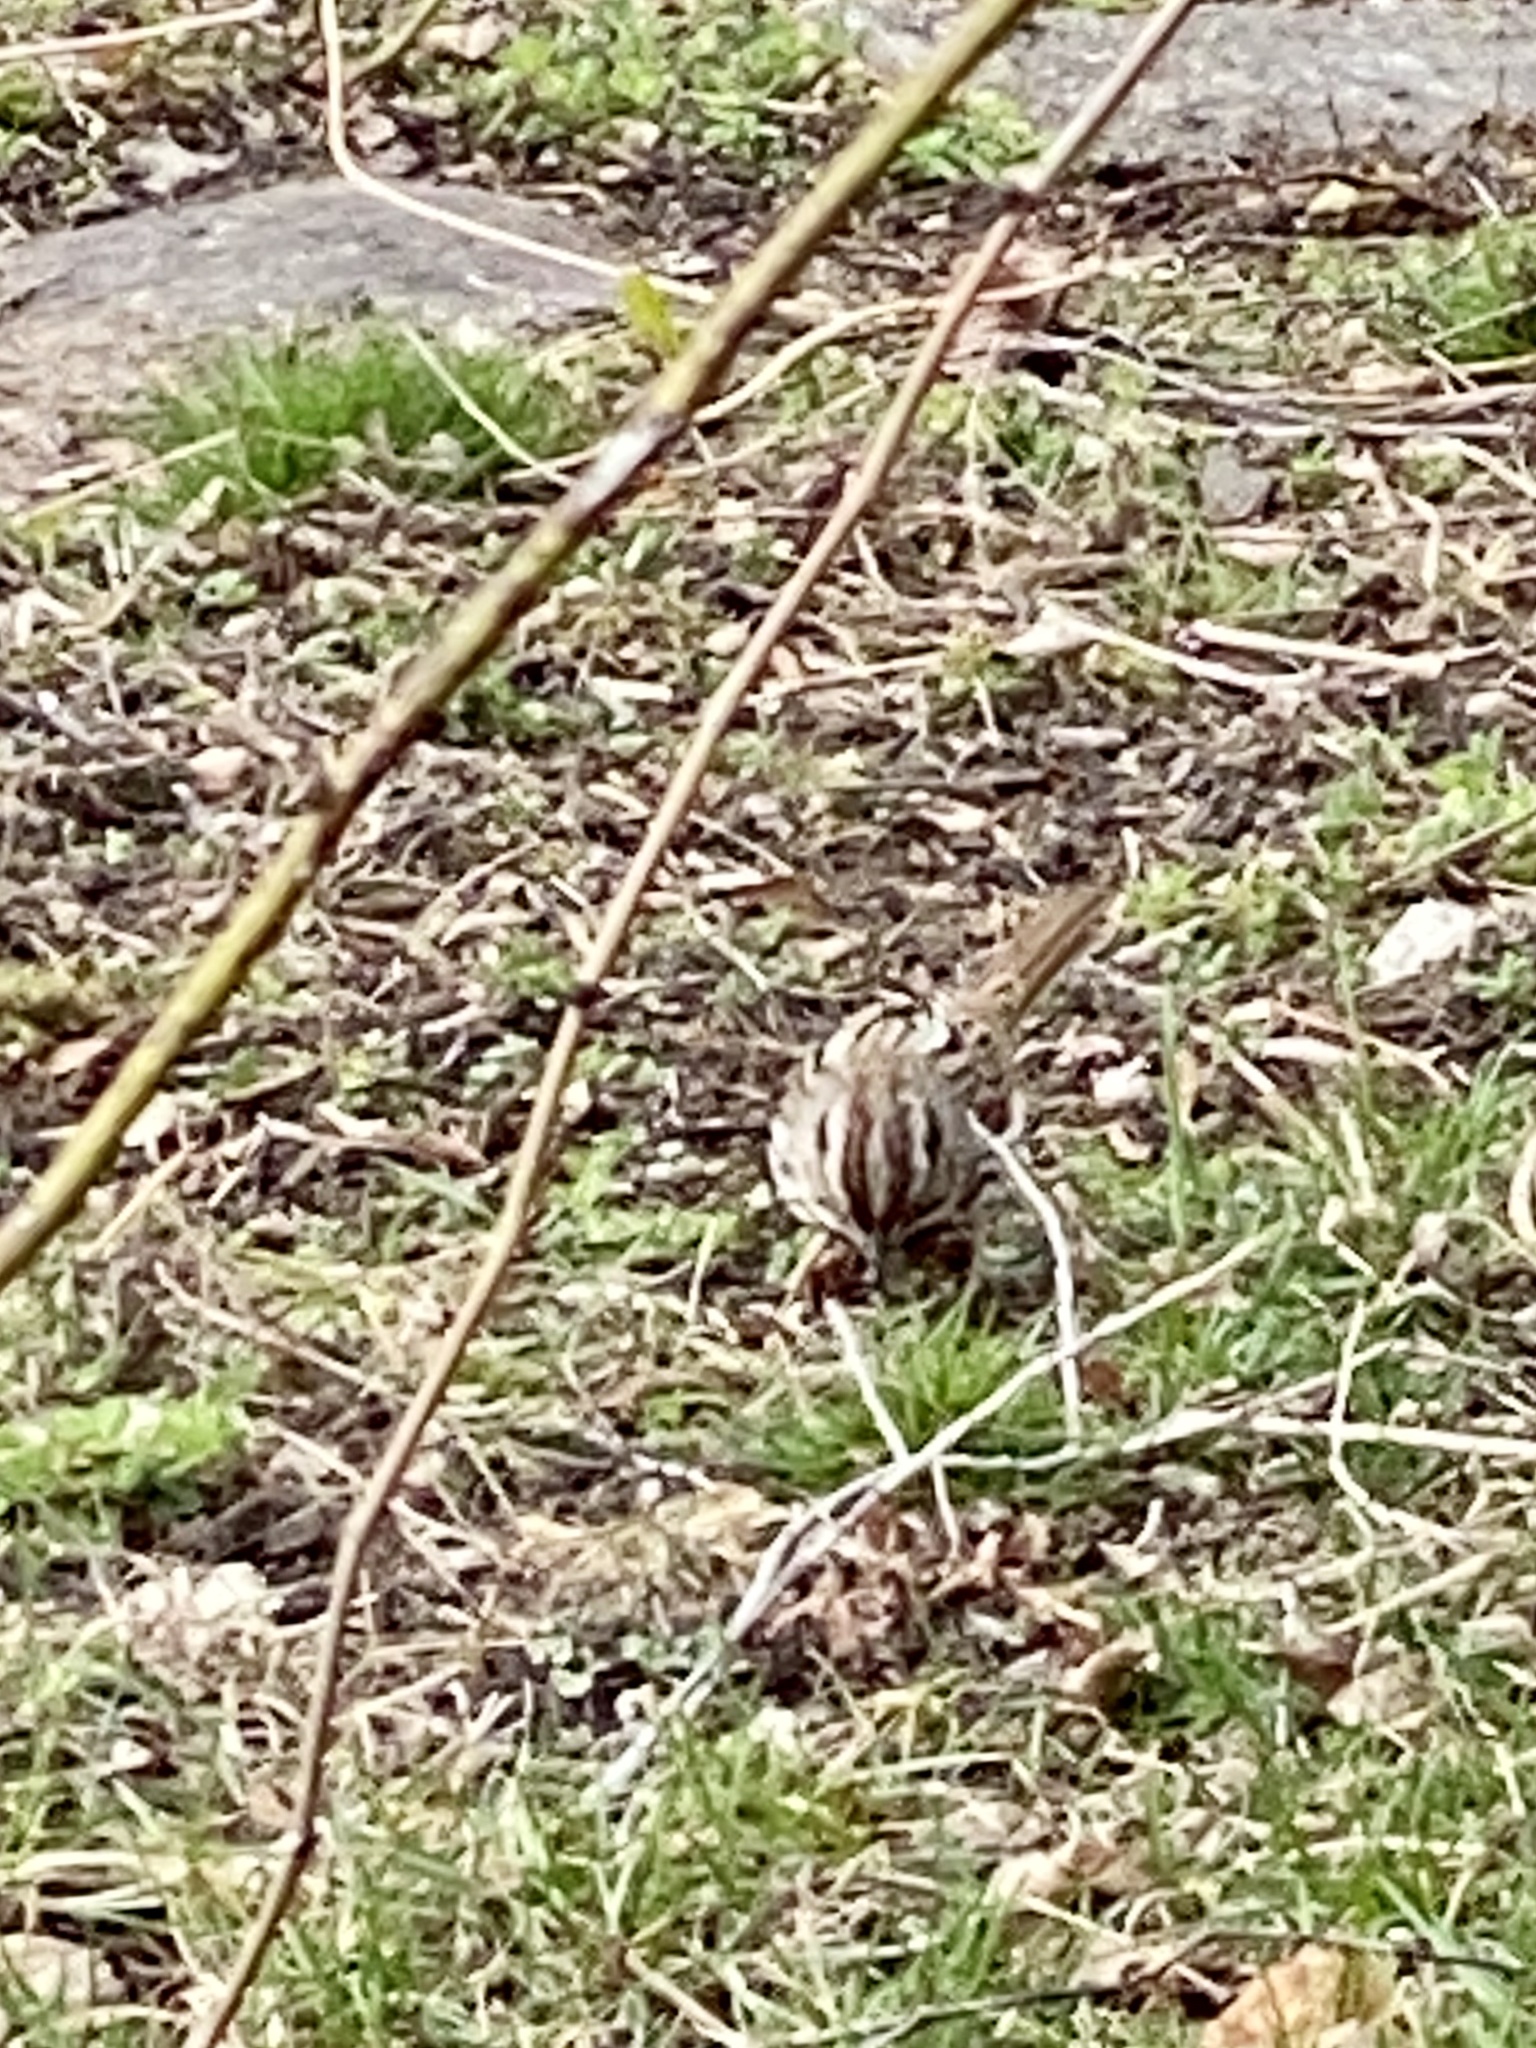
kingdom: Animalia
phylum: Chordata
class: Aves
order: Passeriformes
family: Passerellidae
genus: Melospiza
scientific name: Melospiza melodia
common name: Song sparrow
